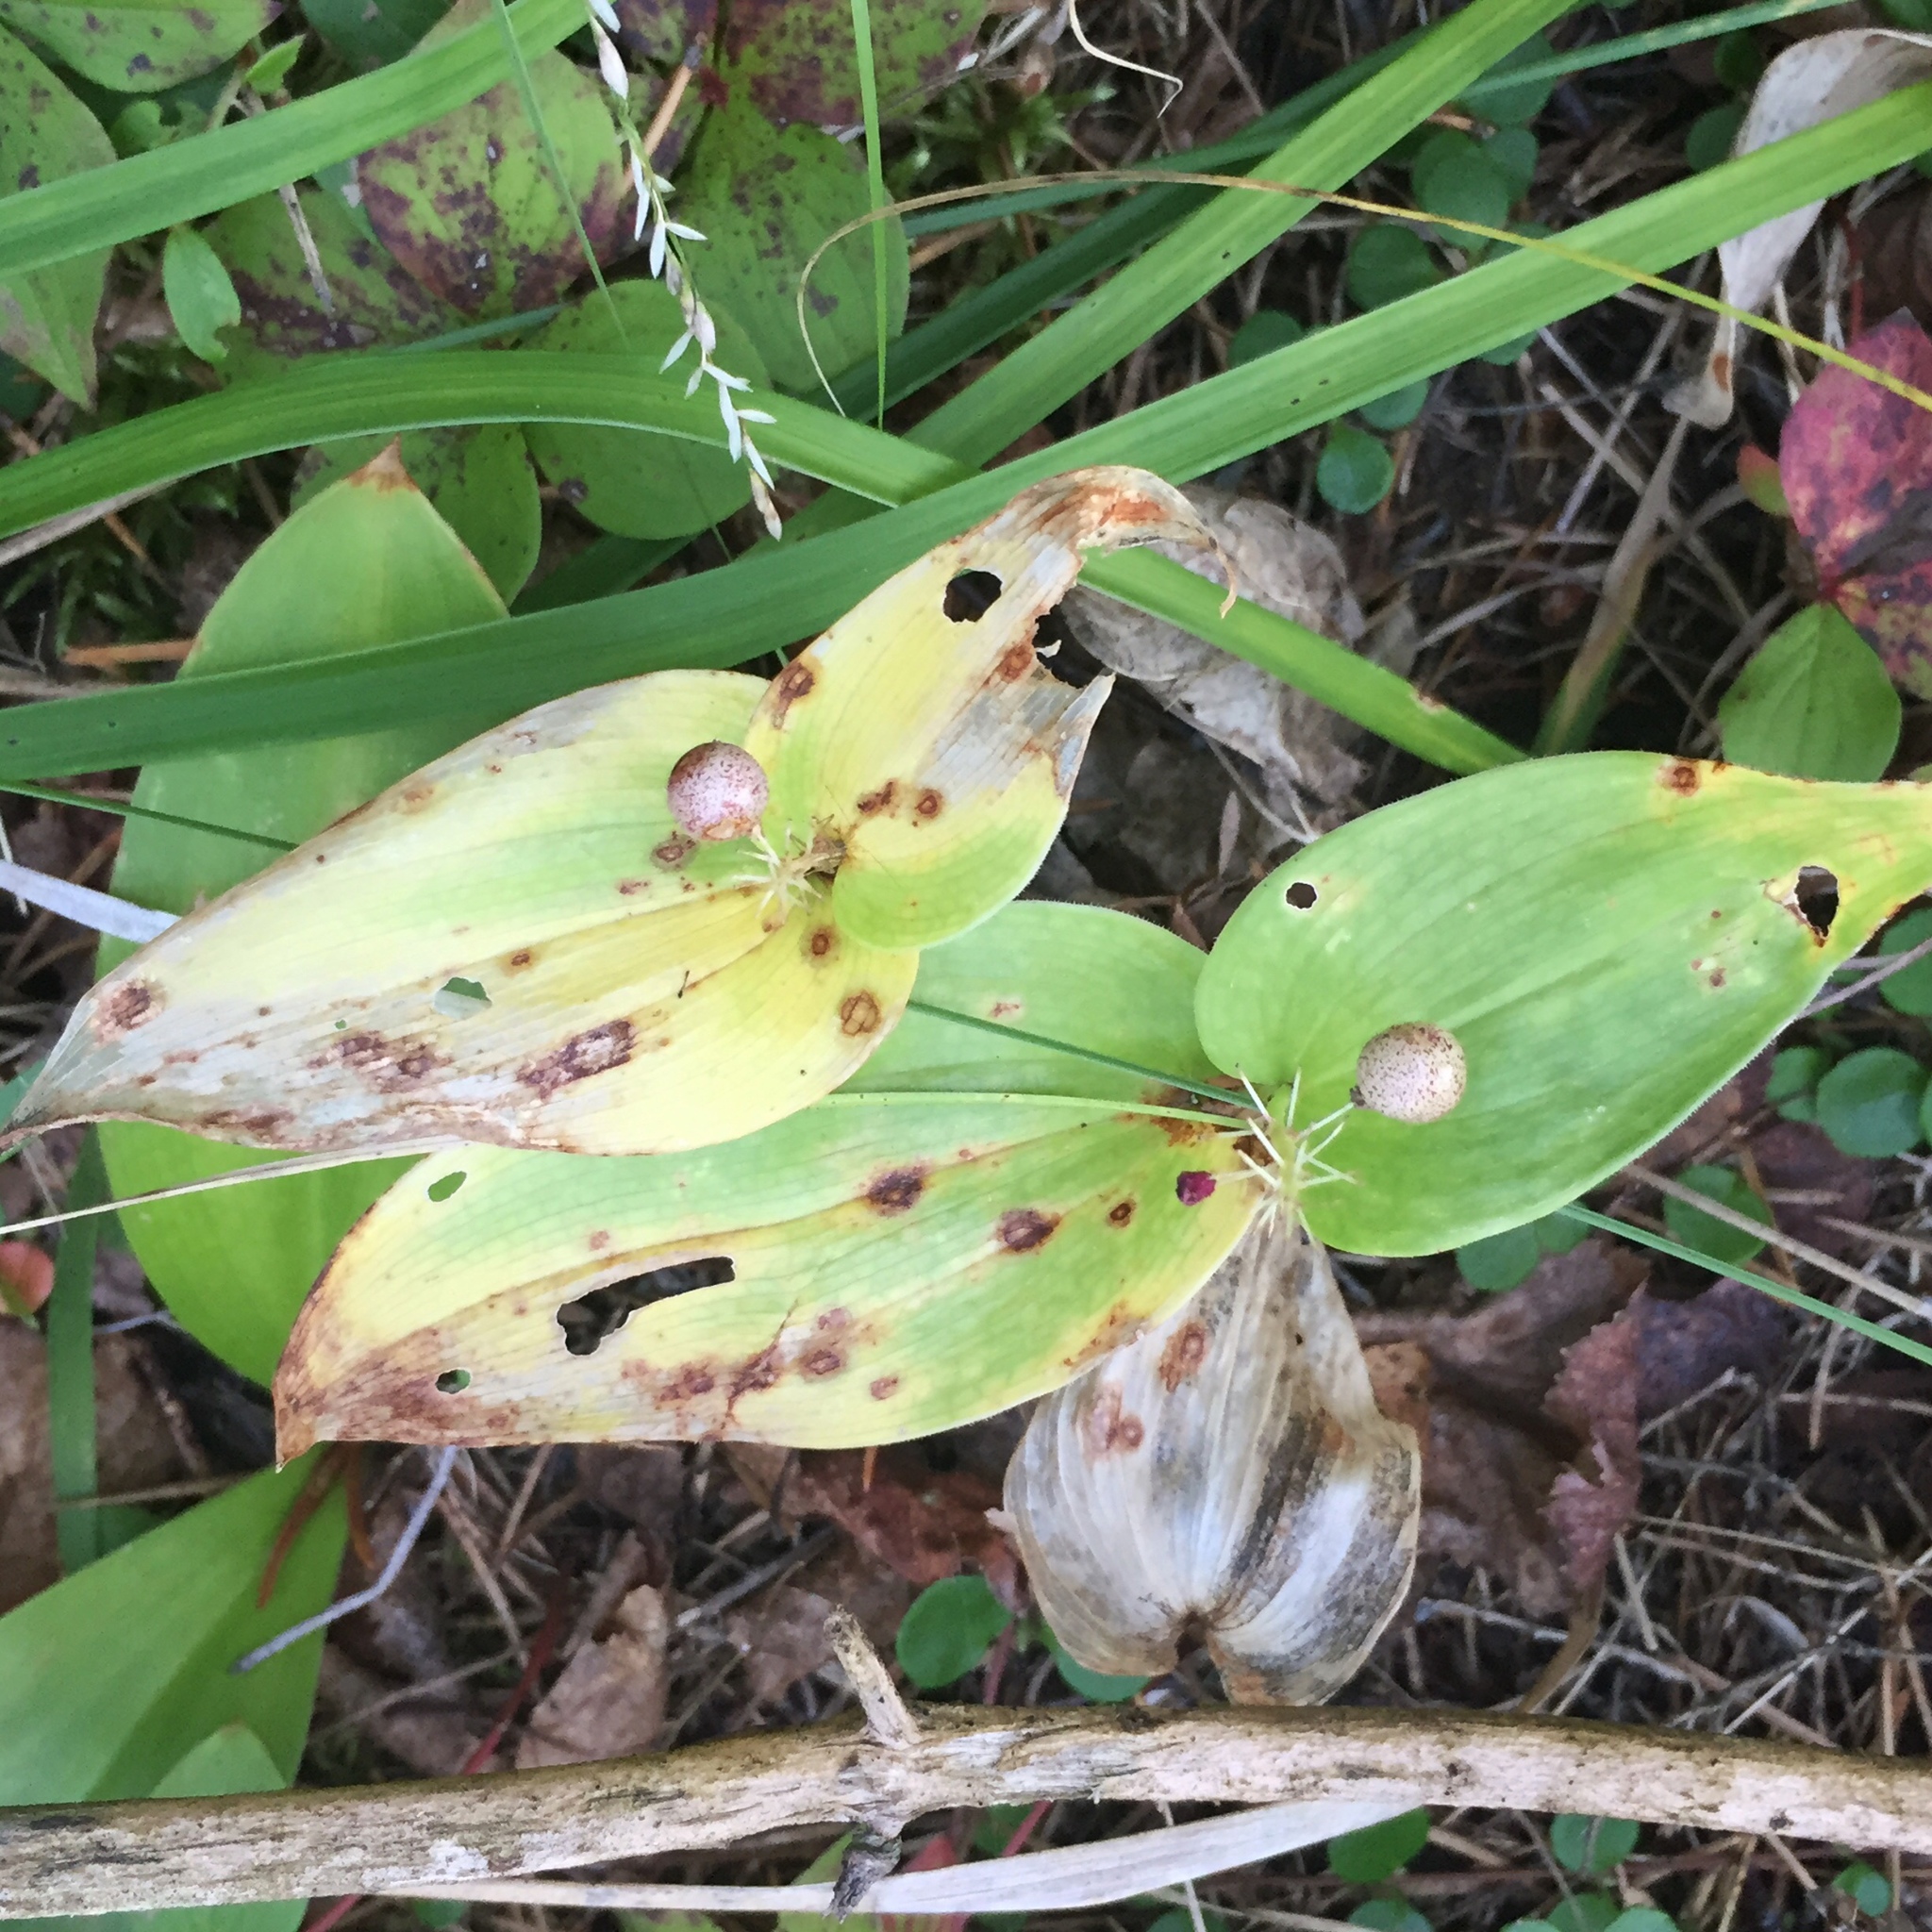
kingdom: Plantae
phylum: Tracheophyta
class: Liliopsida
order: Asparagales
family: Asparagaceae
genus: Maianthemum
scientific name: Maianthemum canadense
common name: False lily-of-the-valley
